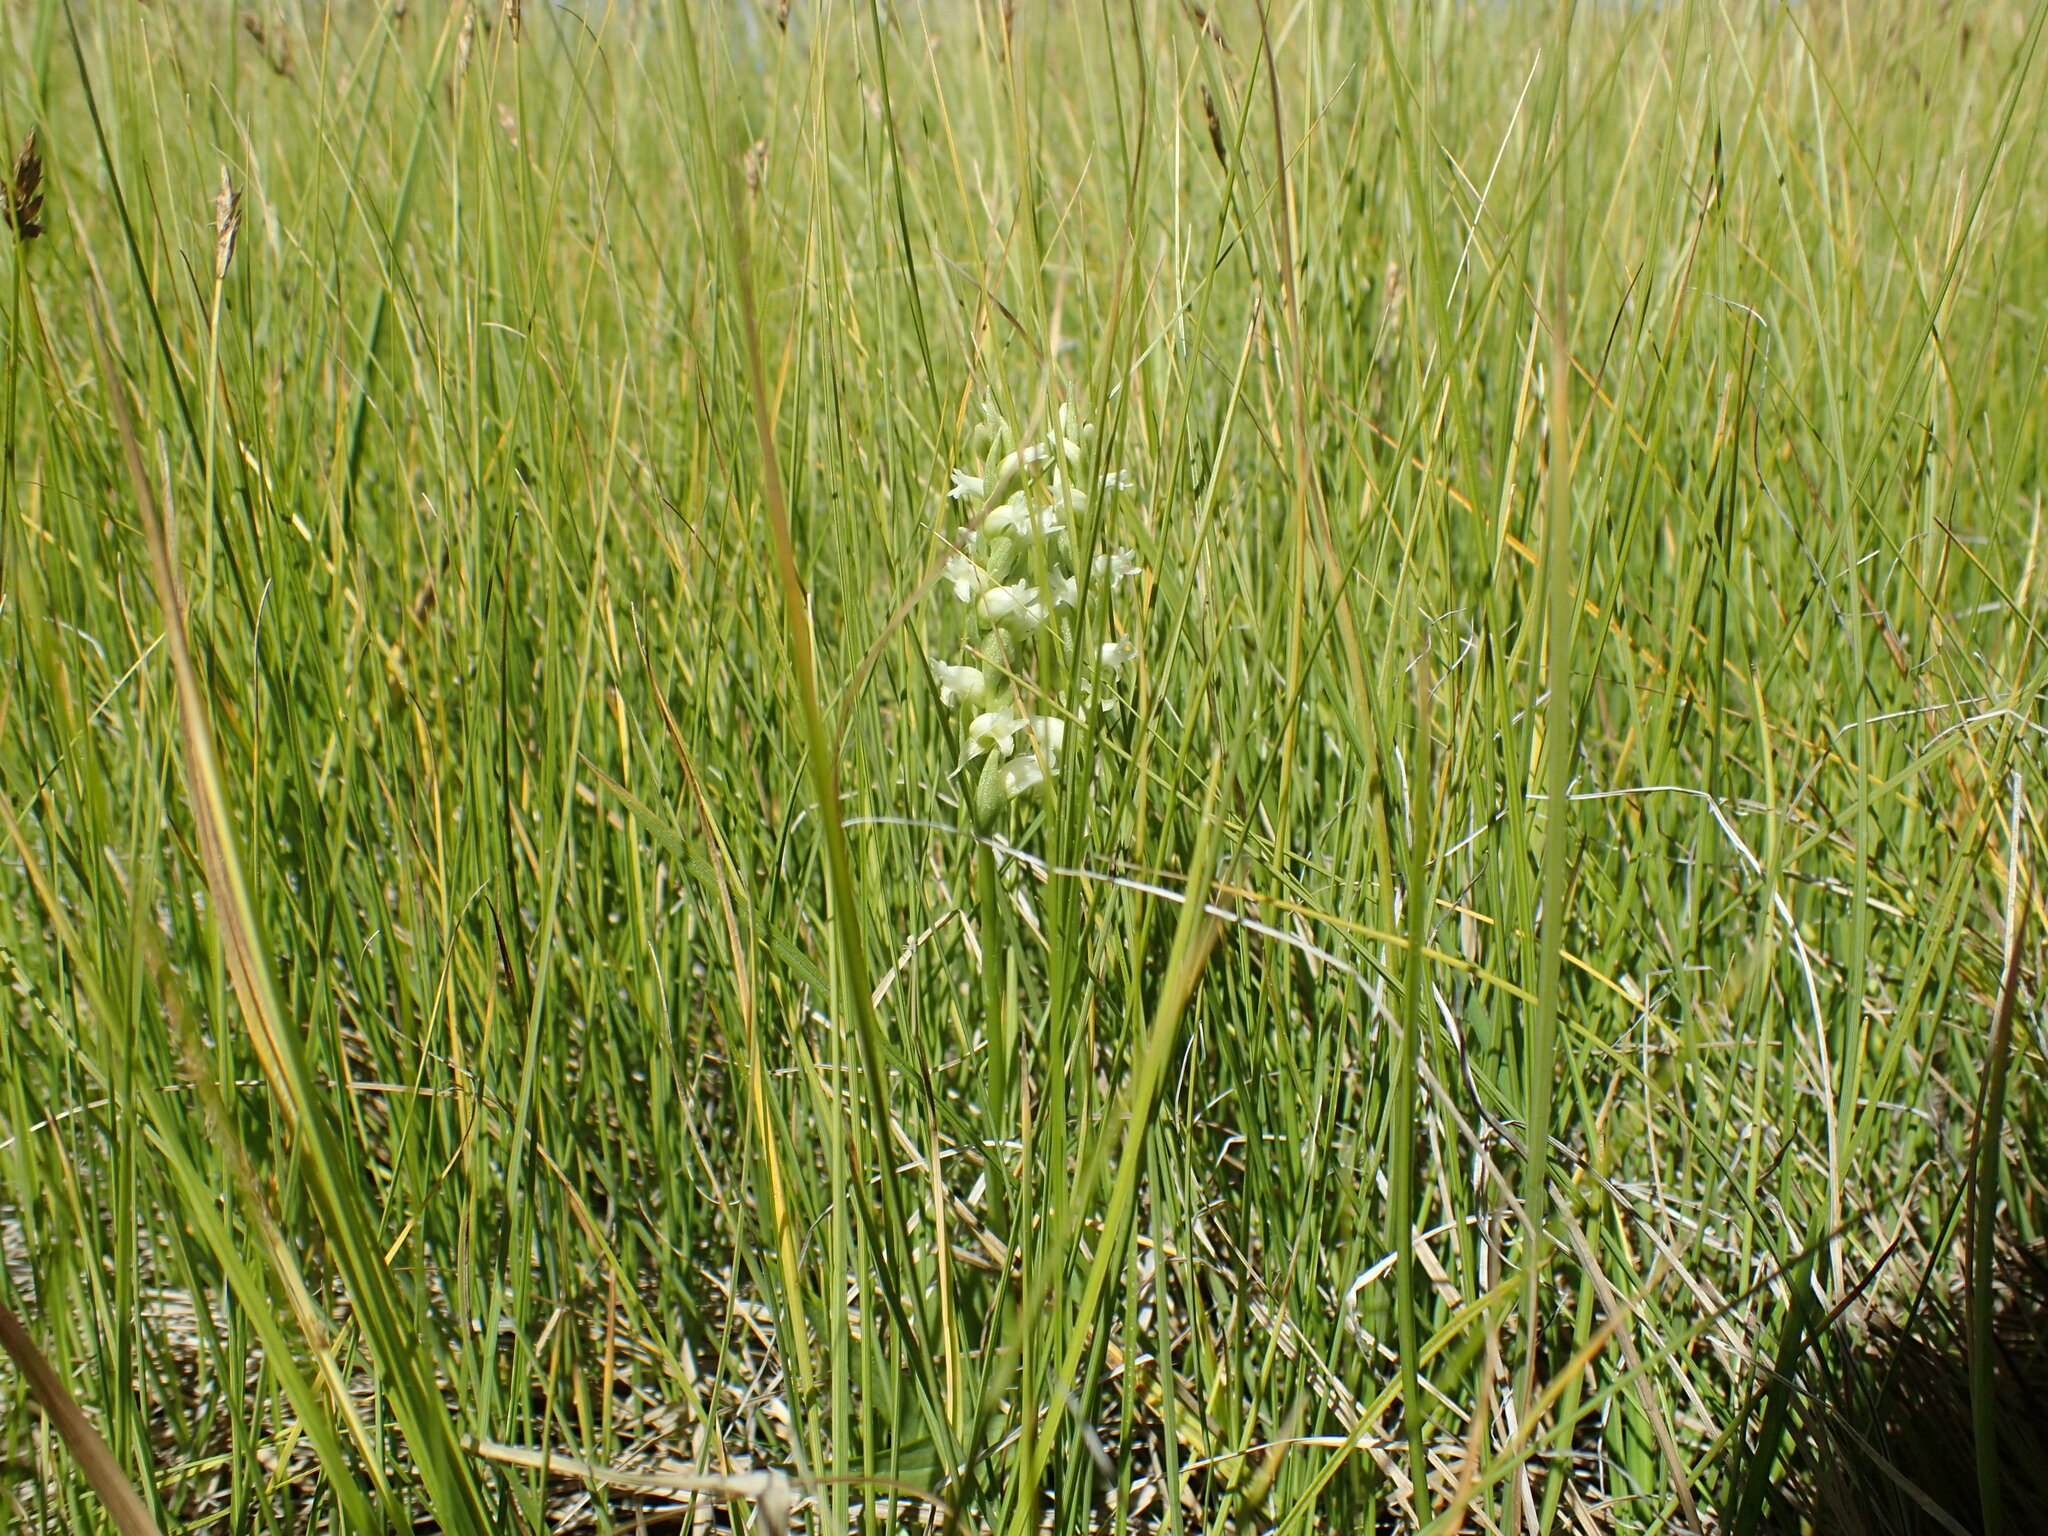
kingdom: Plantae
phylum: Tracheophyta
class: Liliopsida
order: Asparagales
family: Orchidaceae
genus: Spiranthes
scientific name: Spiranthes stellata
